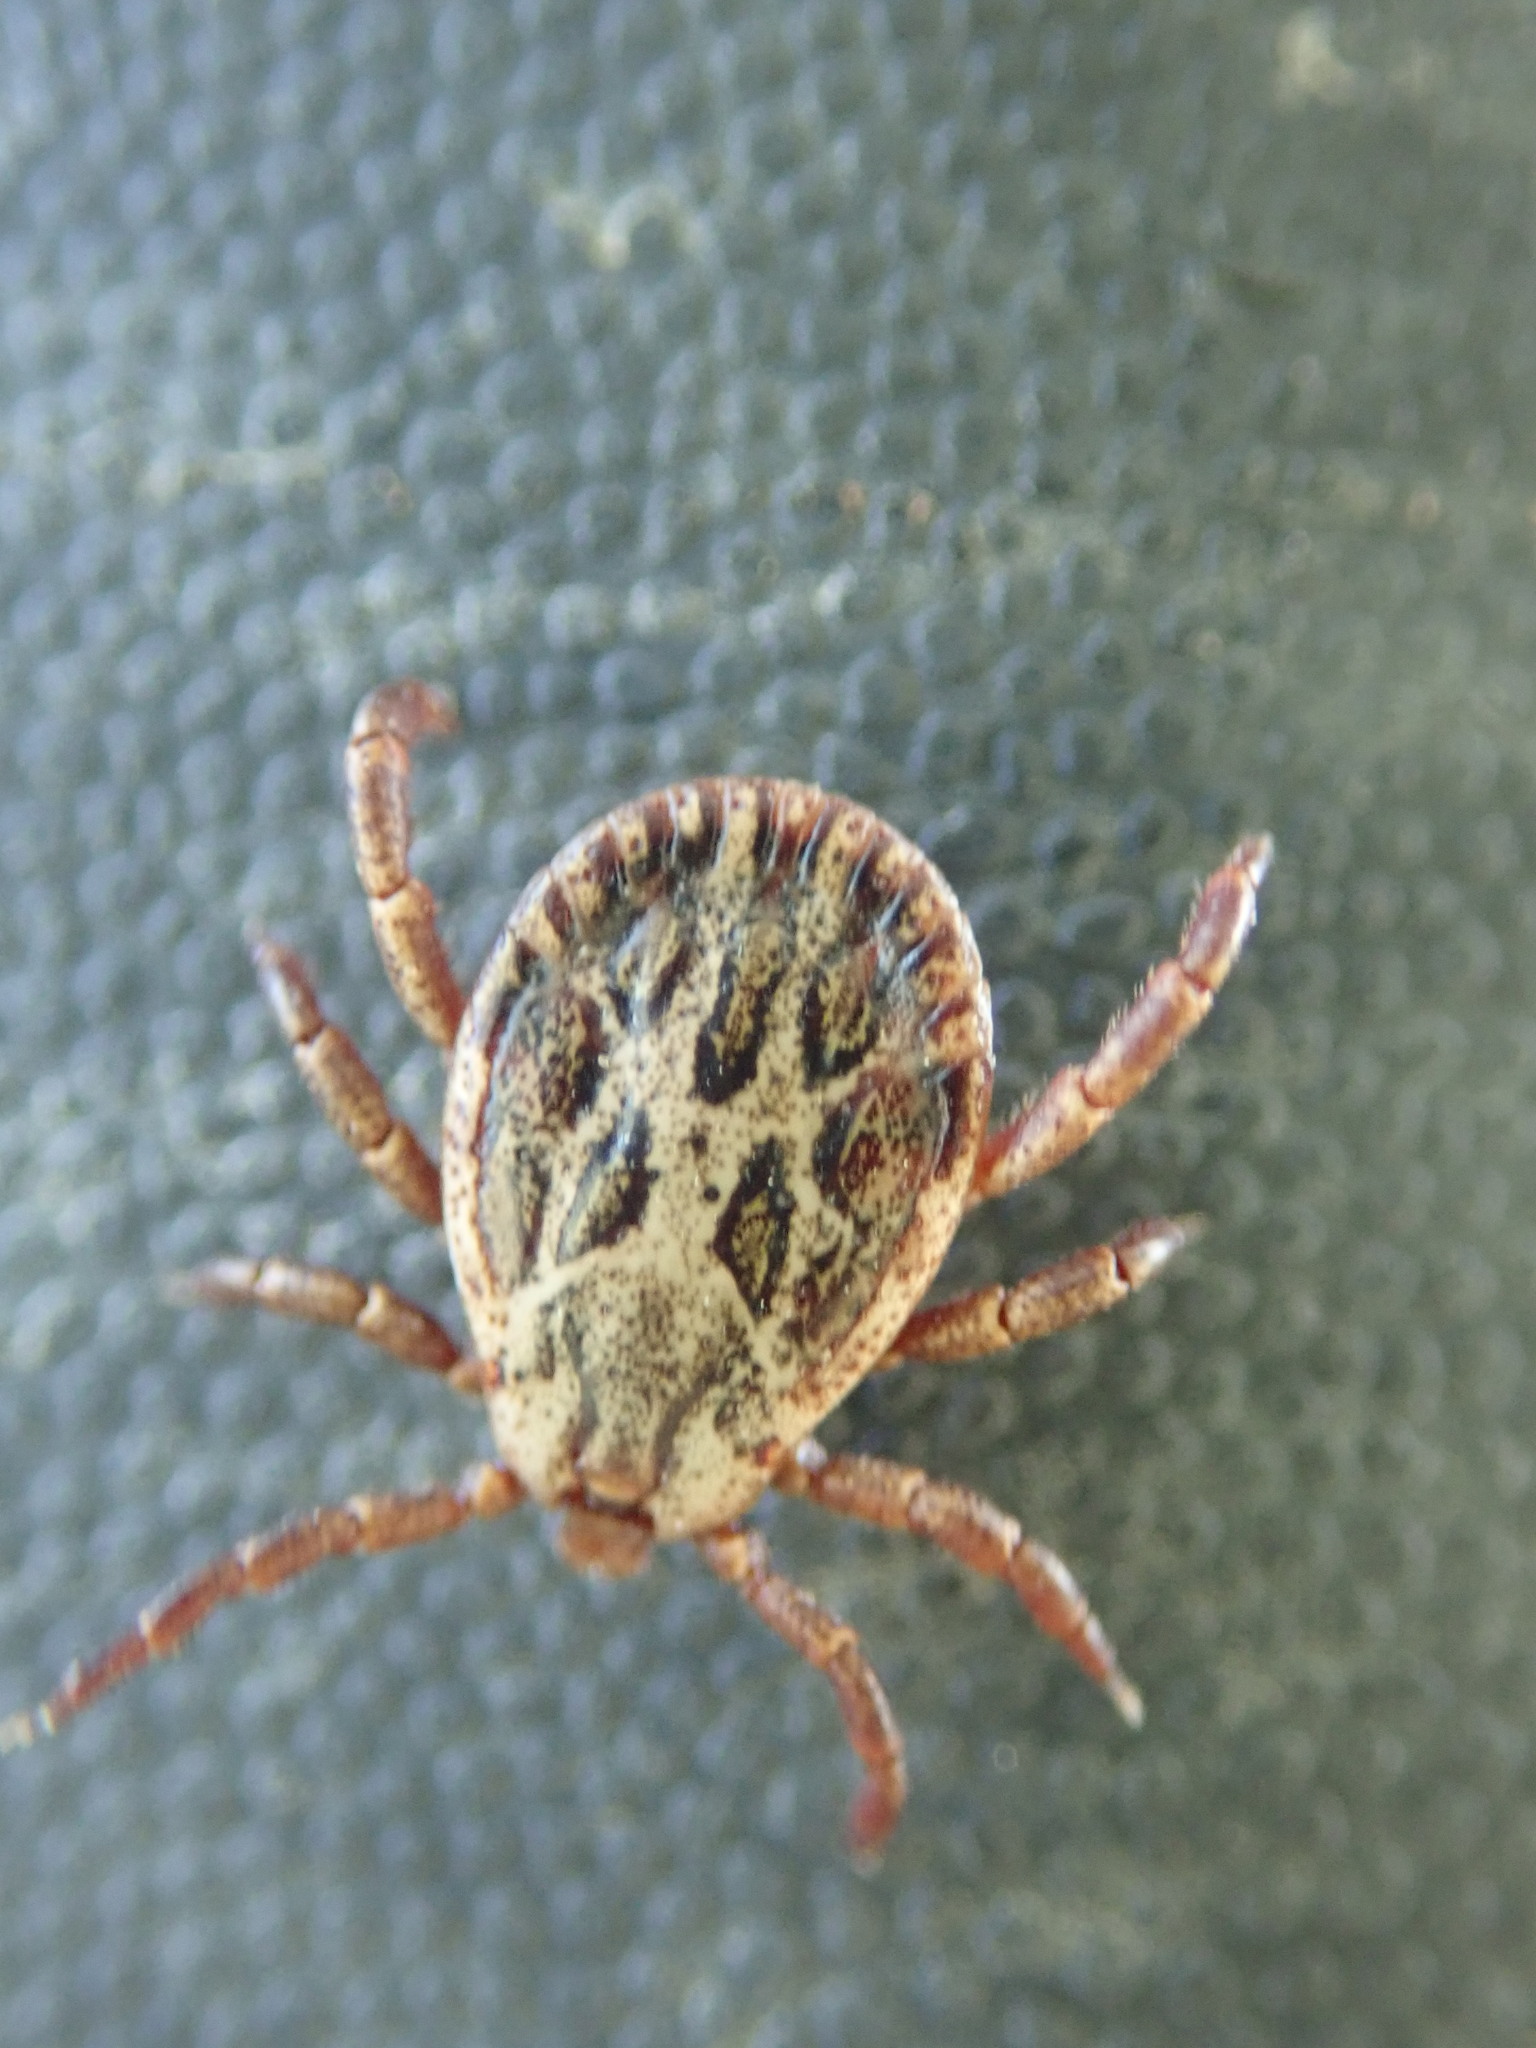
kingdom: Animalia
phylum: Arthropoda
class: Arachnida
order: Ixodida
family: Ixodidae
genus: Dermacentor
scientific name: Dermacentor marginatus
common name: Ornate sheep tick
